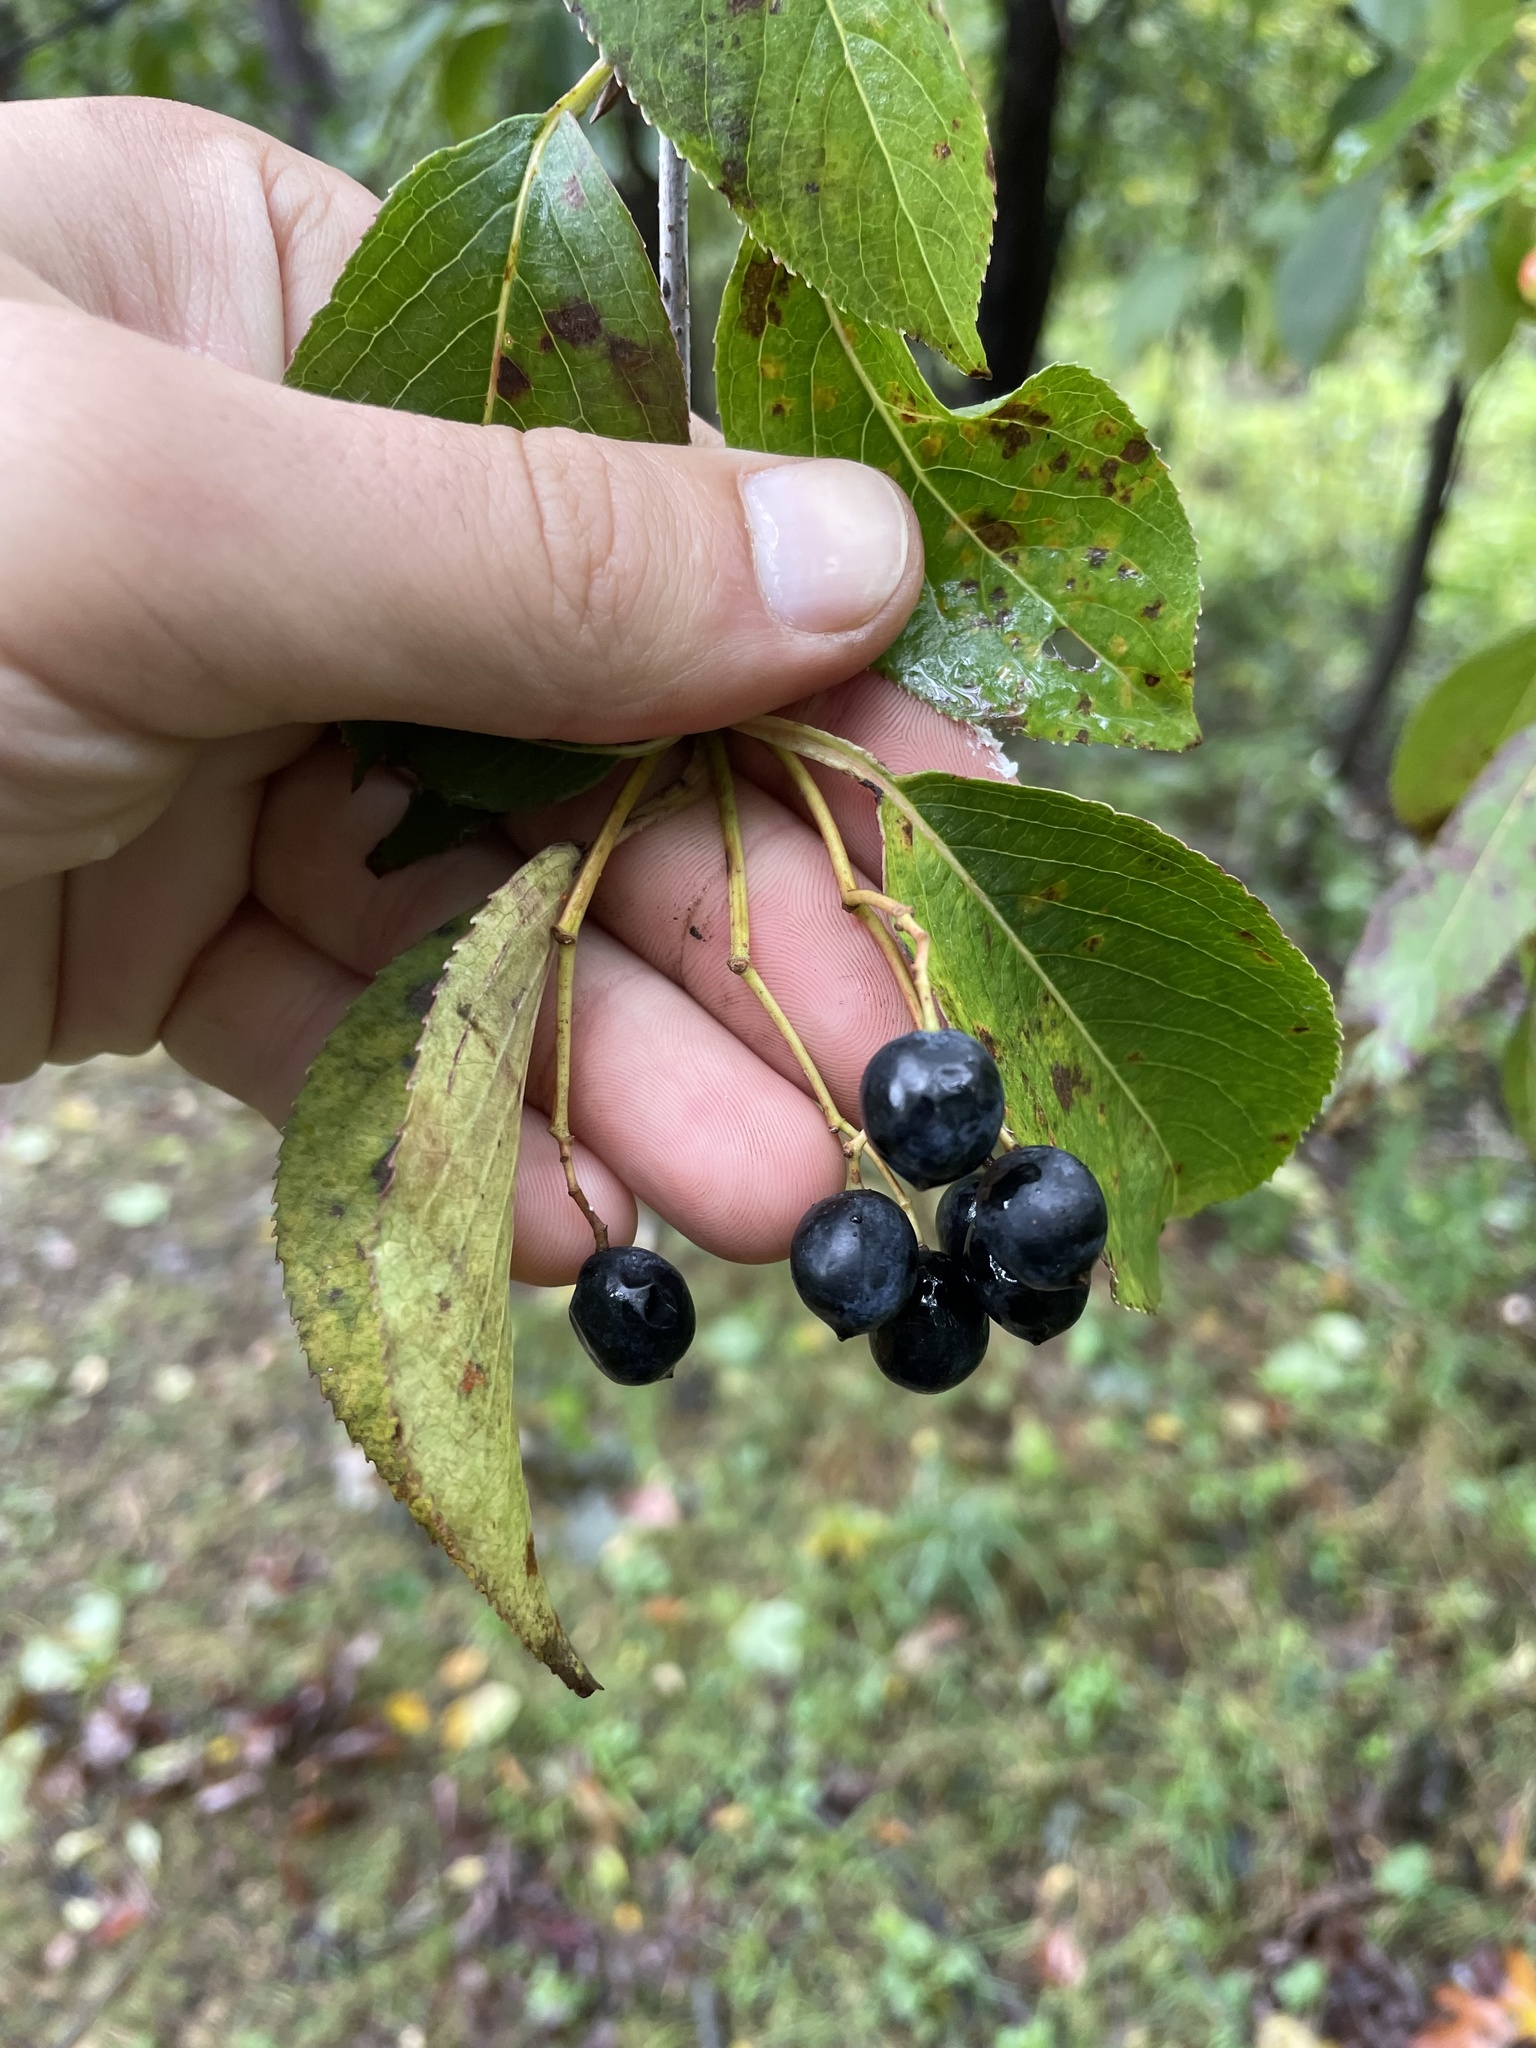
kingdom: Plantae
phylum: Tracheophyta
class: Magnoliopsida
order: Dipsacales
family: Viburnaceae
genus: Viburnum
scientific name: Viburnum lentago
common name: Black haw
